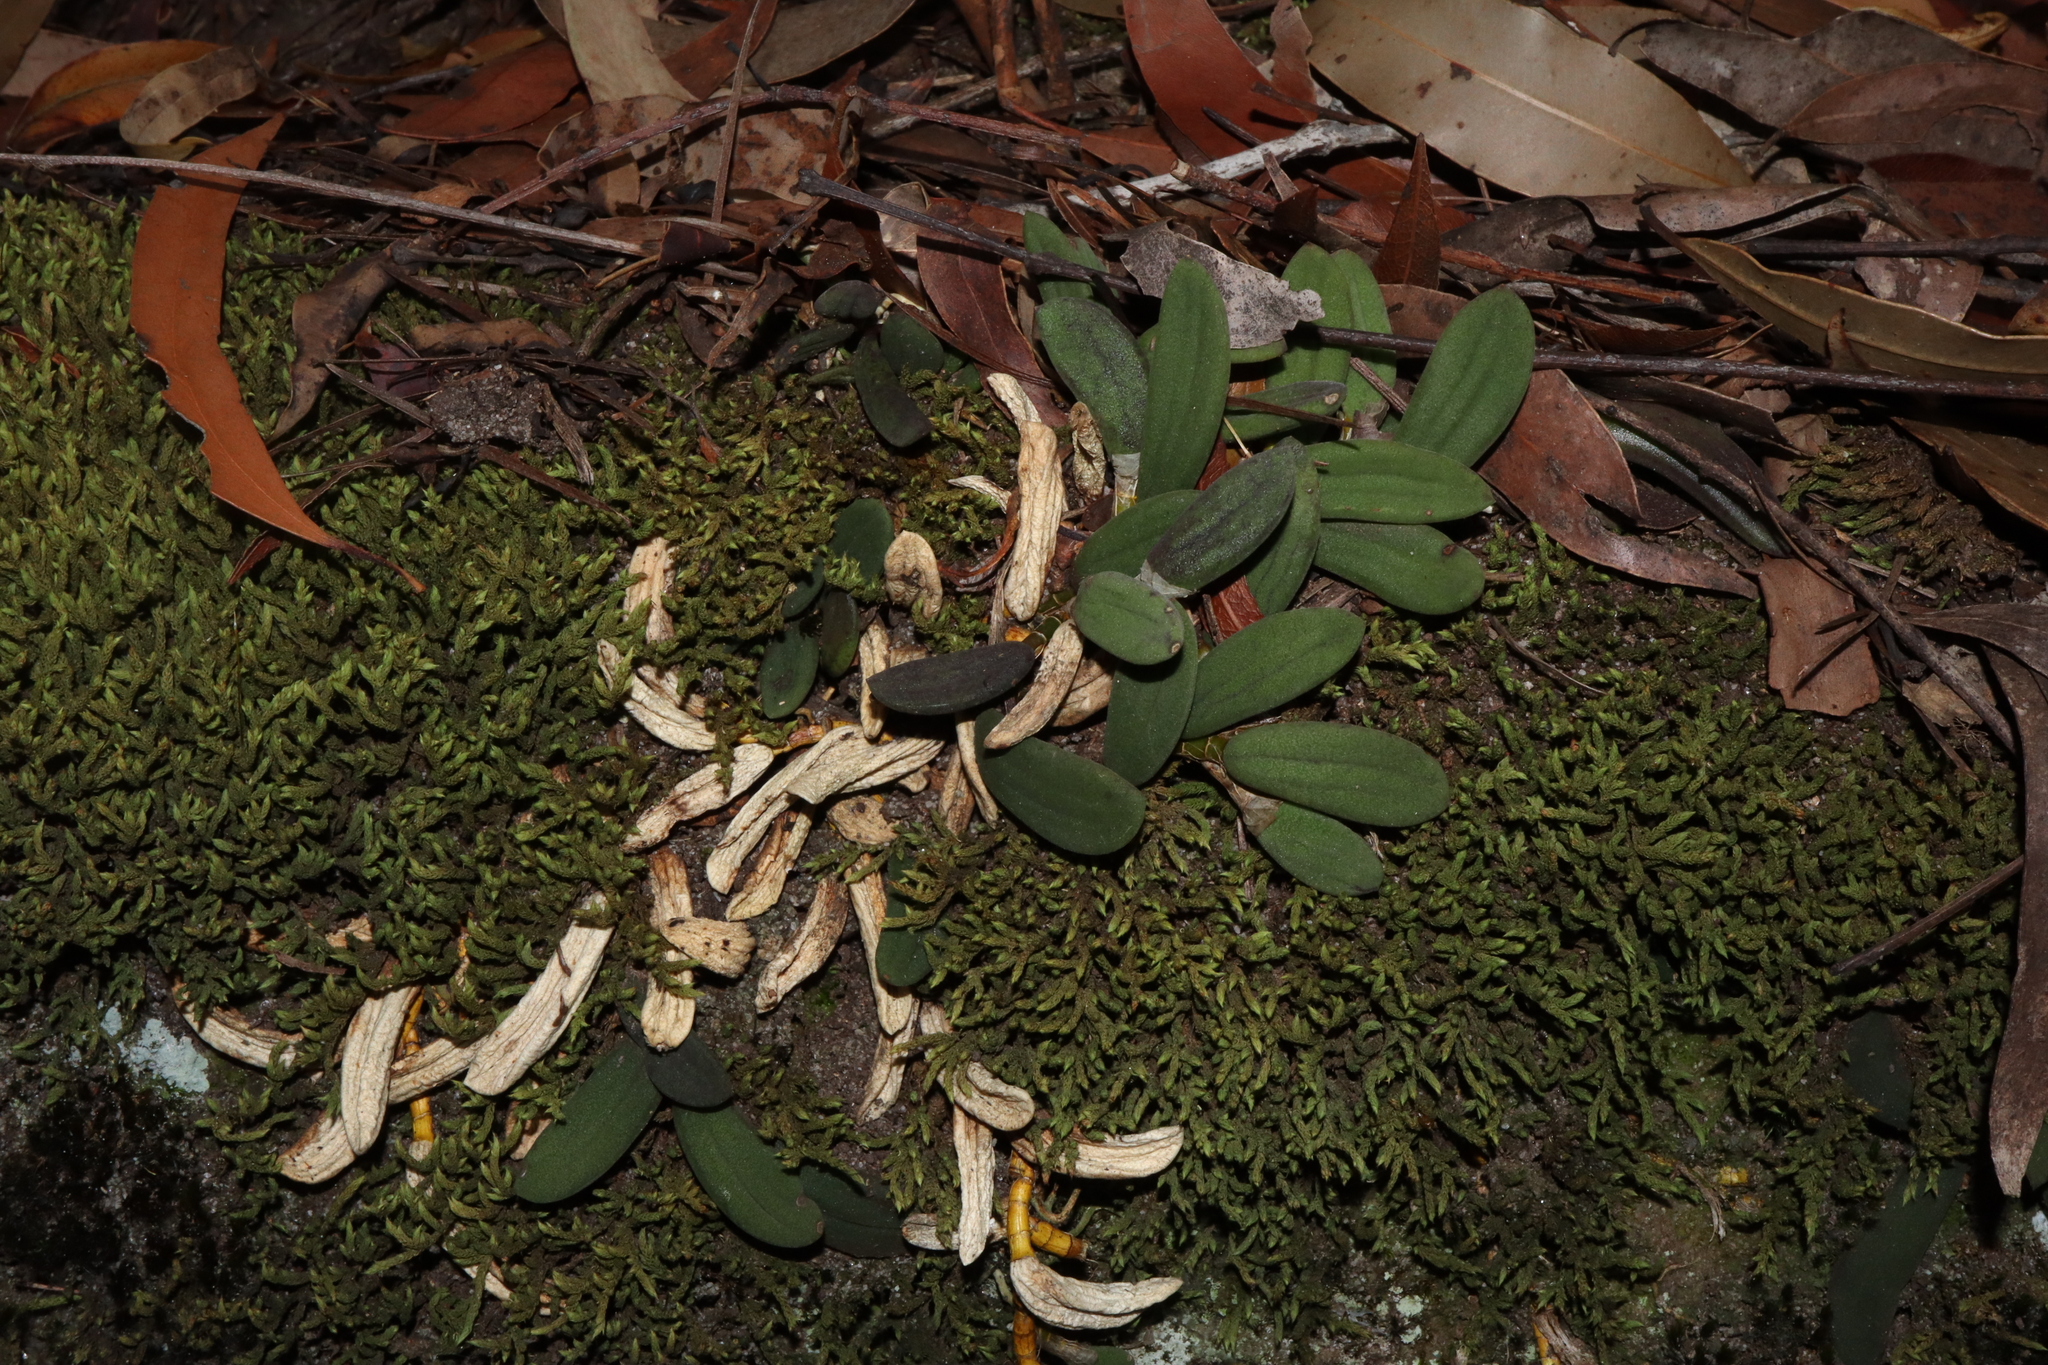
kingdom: Plantae
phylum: Tracheophyta
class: Liliopsida
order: Asparagales
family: Orchidaceae
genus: Dendrobium
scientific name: Dendrobium linguiforme
